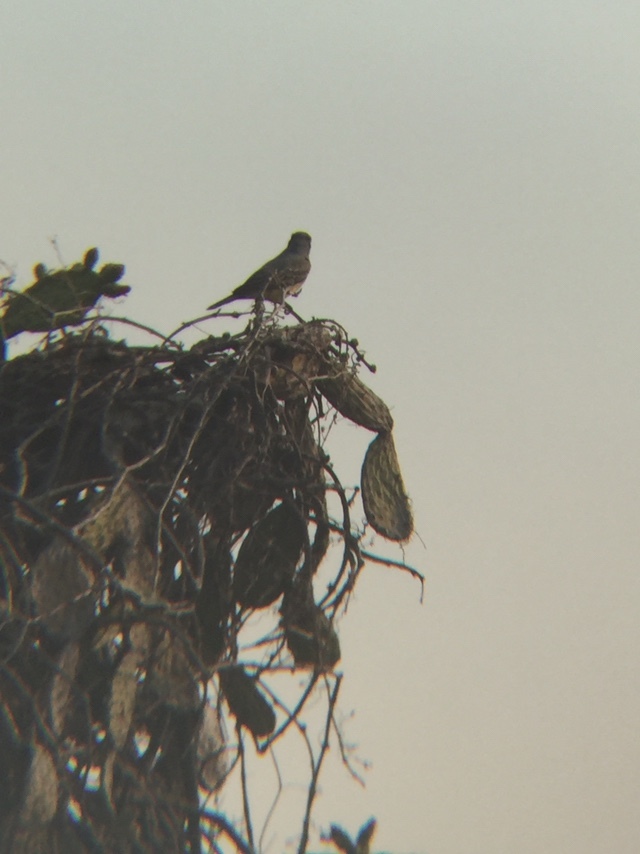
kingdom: Animalia
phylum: Chordata
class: Aves
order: Passeriformes
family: Tyrannidae
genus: Tyrannus
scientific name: Tyrannus vociferans
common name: Cassin's kingbird
